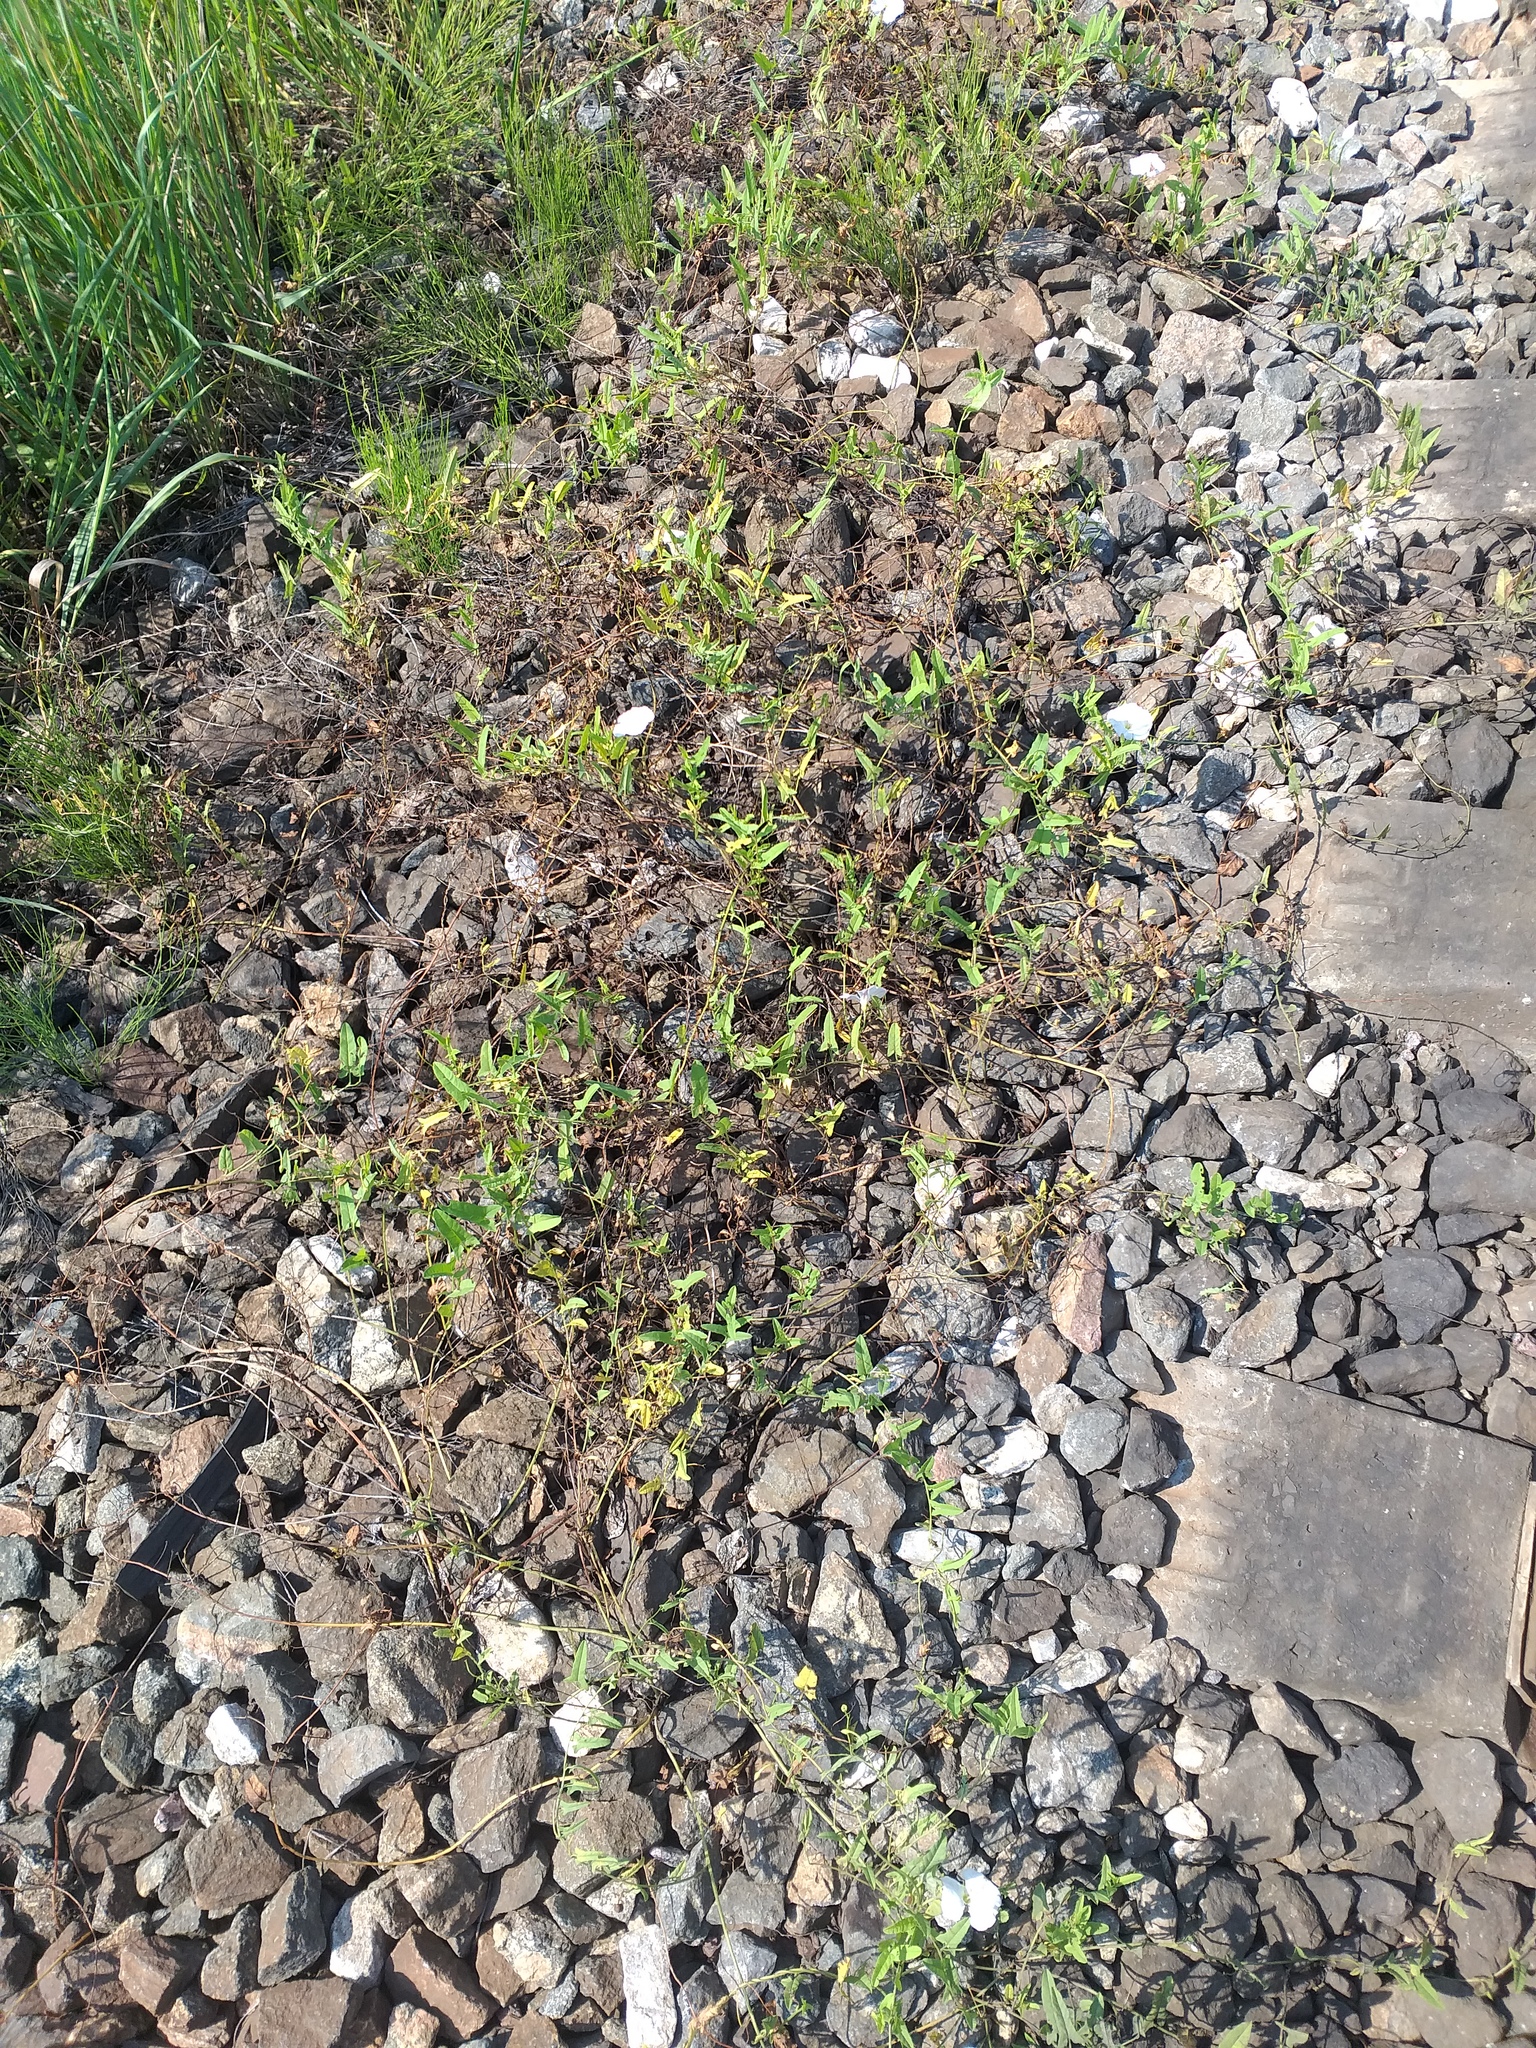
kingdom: Plantae
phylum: Tracheophyta
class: Magnoliopsida
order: Solanales
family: Convolvulaceae
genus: Convolvulus
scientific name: Convolvulus arvensis
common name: Field bindweed
